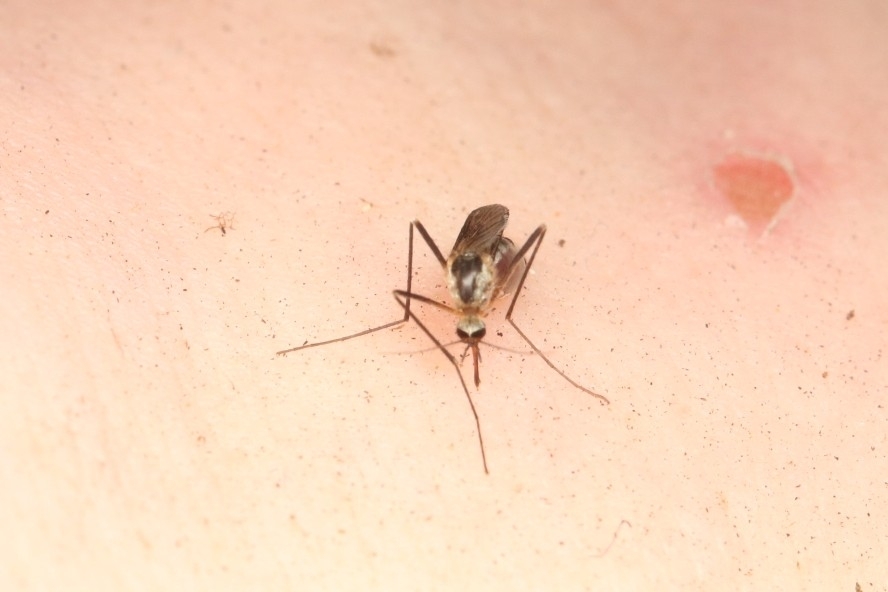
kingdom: Animalia
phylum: Arthropoda
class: Insecta
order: Diptera
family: Culicidae
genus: Aedes
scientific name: Aedes triseriatus
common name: Eastern treehole mosquito
